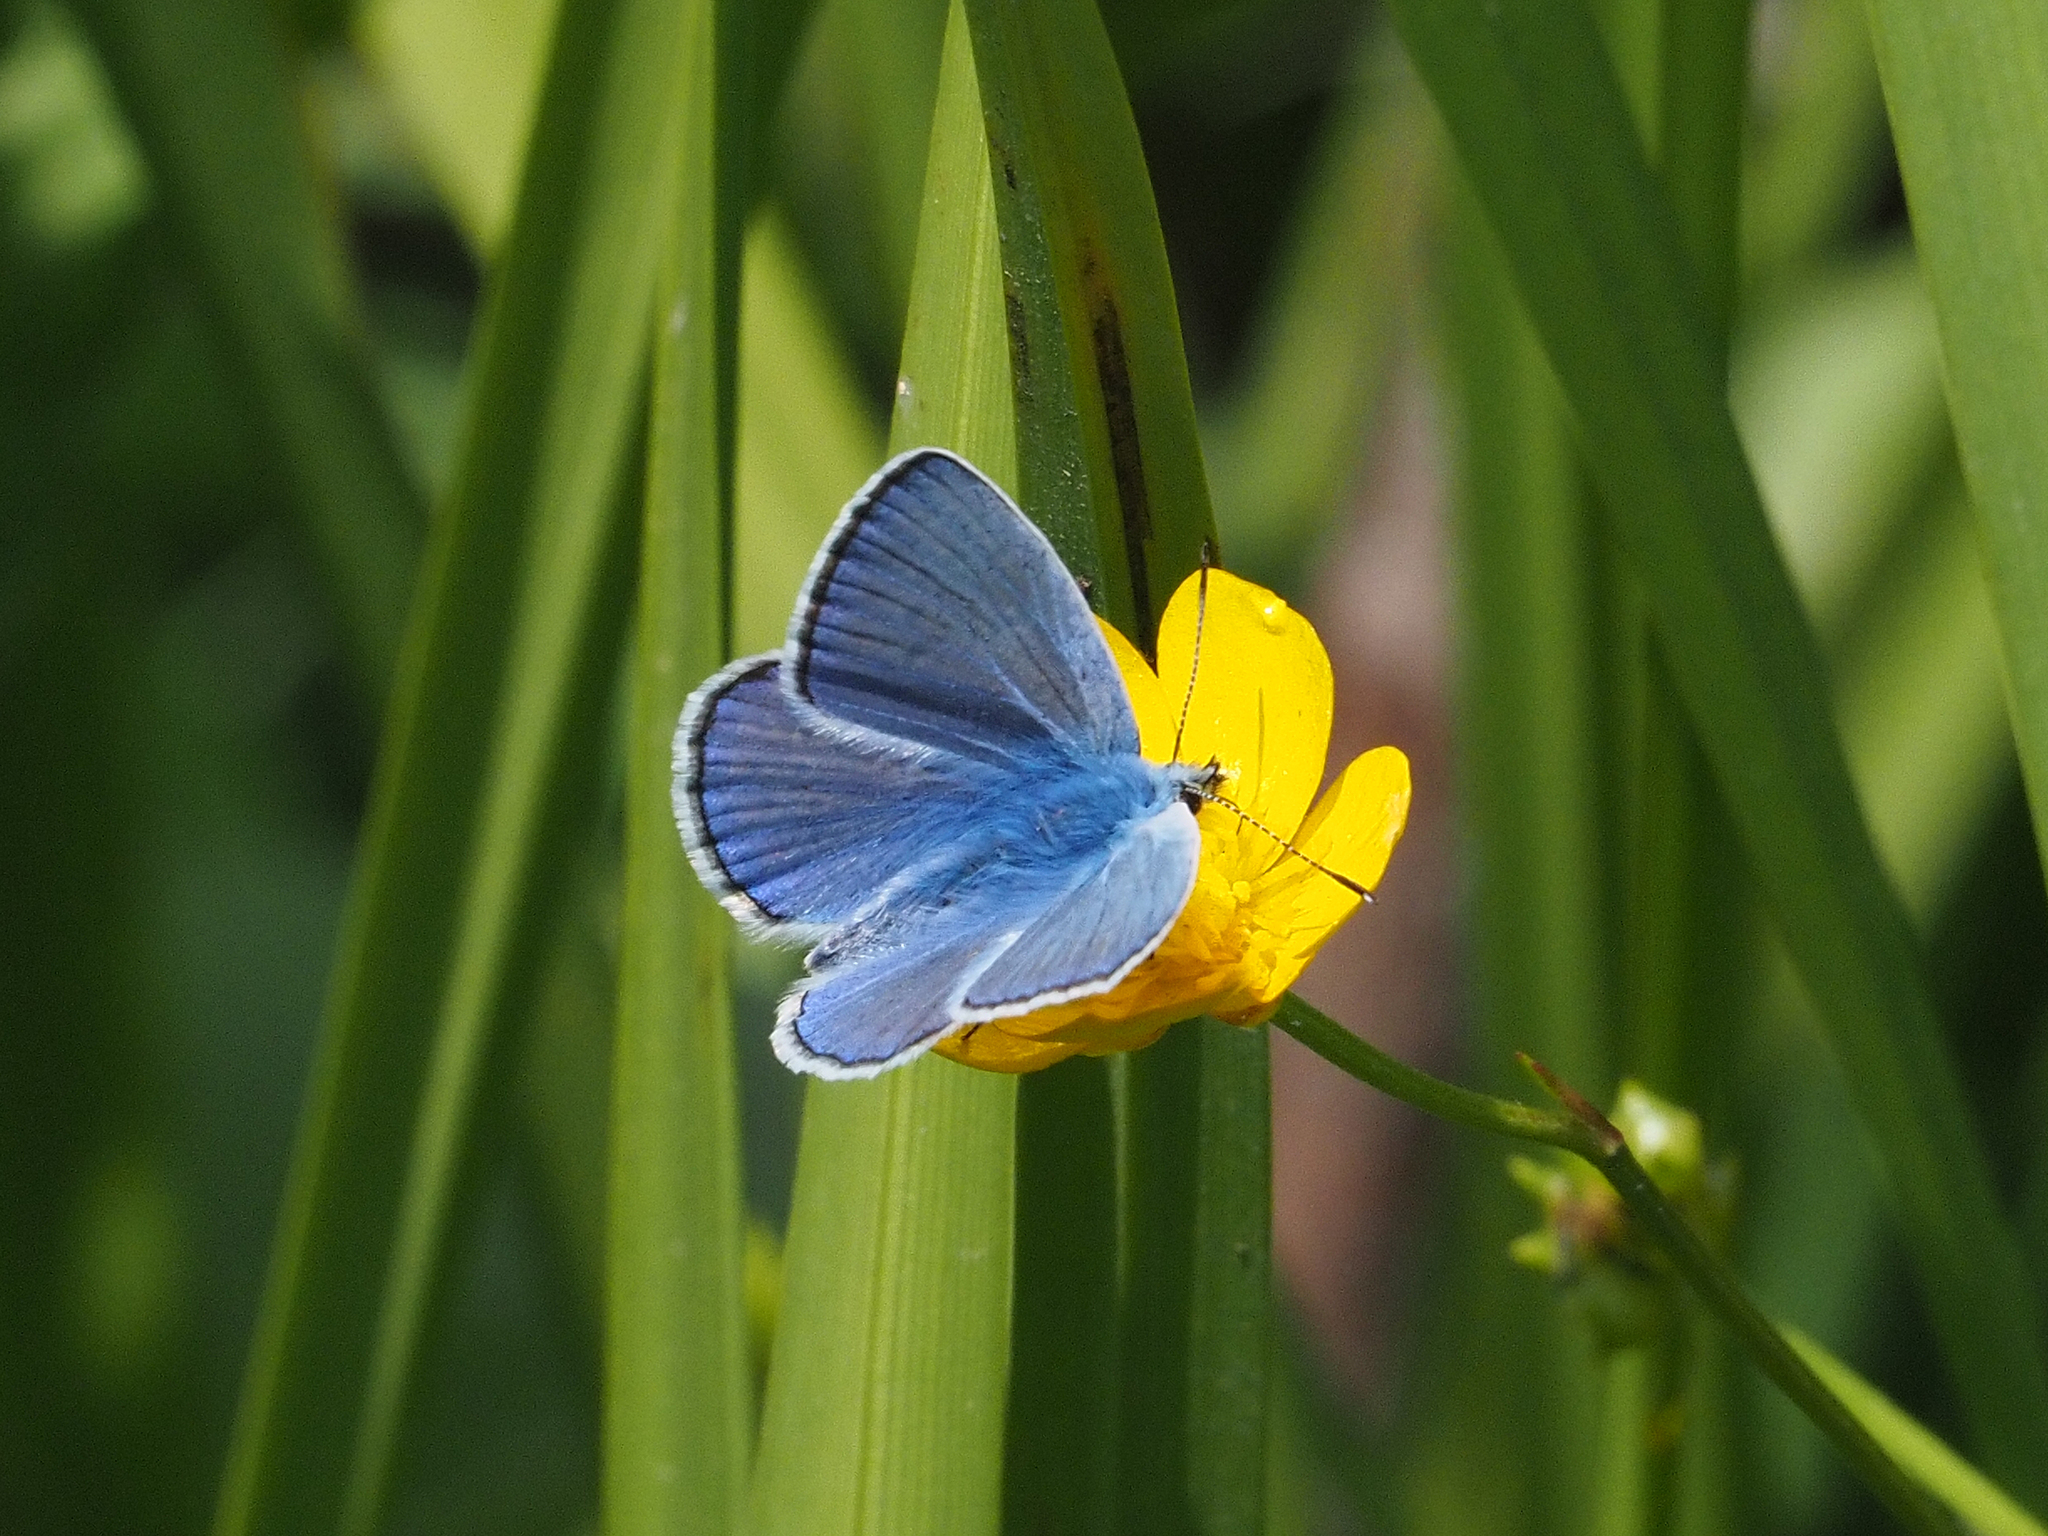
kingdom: Animalia
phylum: Arthropoda
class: Insecta
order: Lepidoptera
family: Lycaenidae
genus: Polyommatus
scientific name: Polyommatus icarus
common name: Common blue
